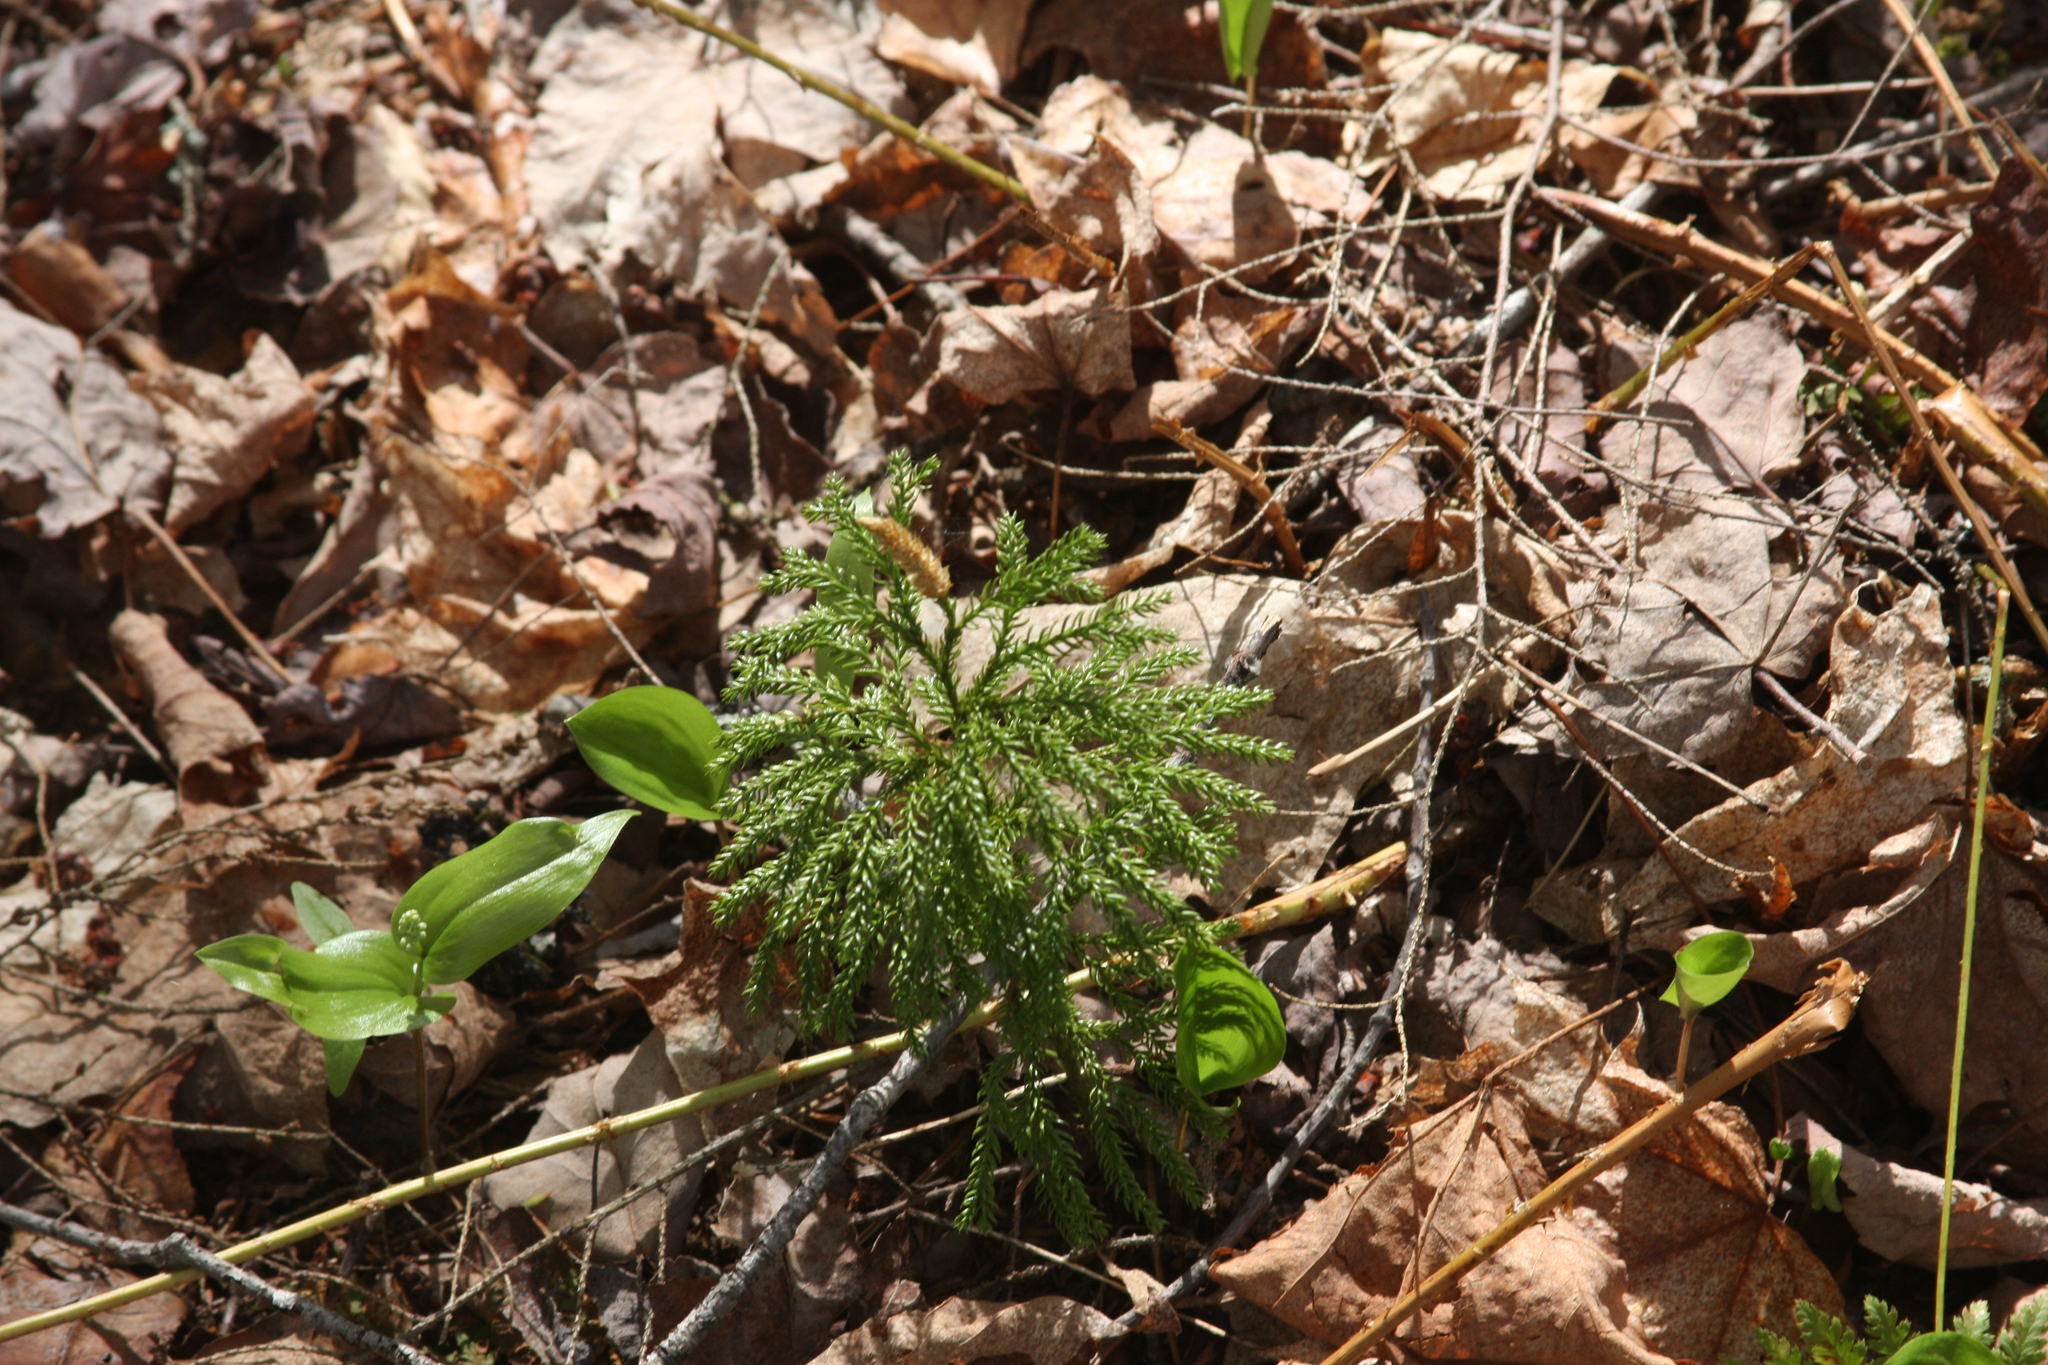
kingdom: Plantae
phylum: Tracheophyta
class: Liliopsida
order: Asparagales
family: Asparagaceae
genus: Maianthemum
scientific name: Maianthemum canadense
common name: False lily-of-the-valley
